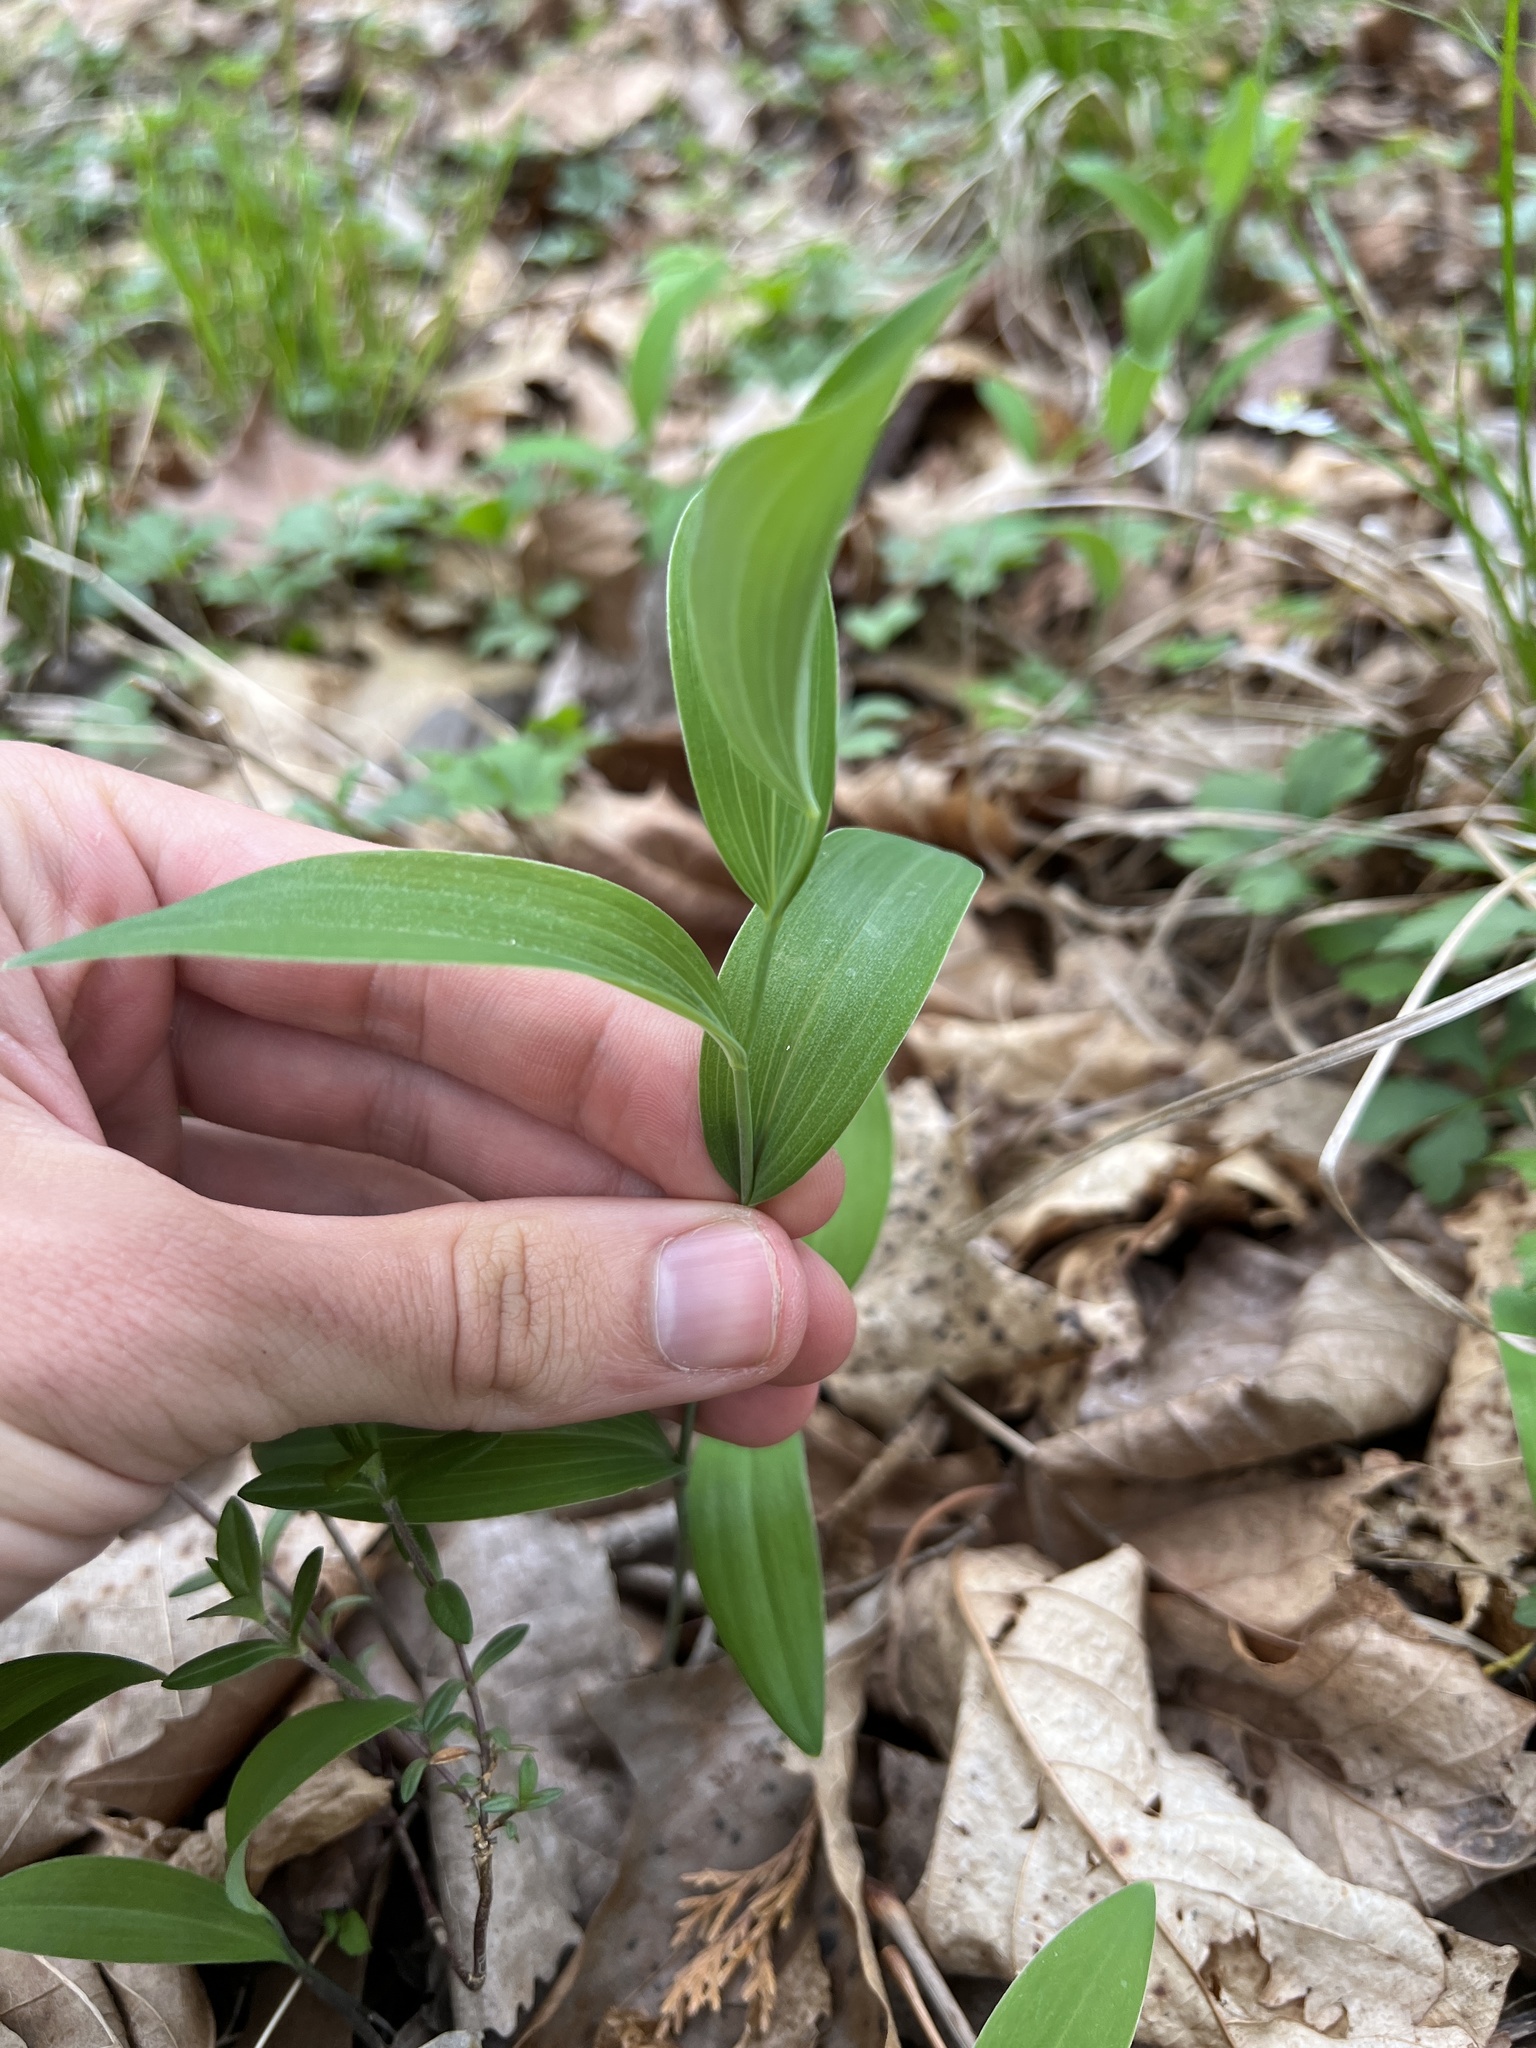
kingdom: Plantae
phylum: Tracheophyta
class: Liliopsida
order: Asparagales
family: Asparagaceae
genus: Polygonatum
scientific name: Polygonatum biflorum
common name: American solomon's-seal
